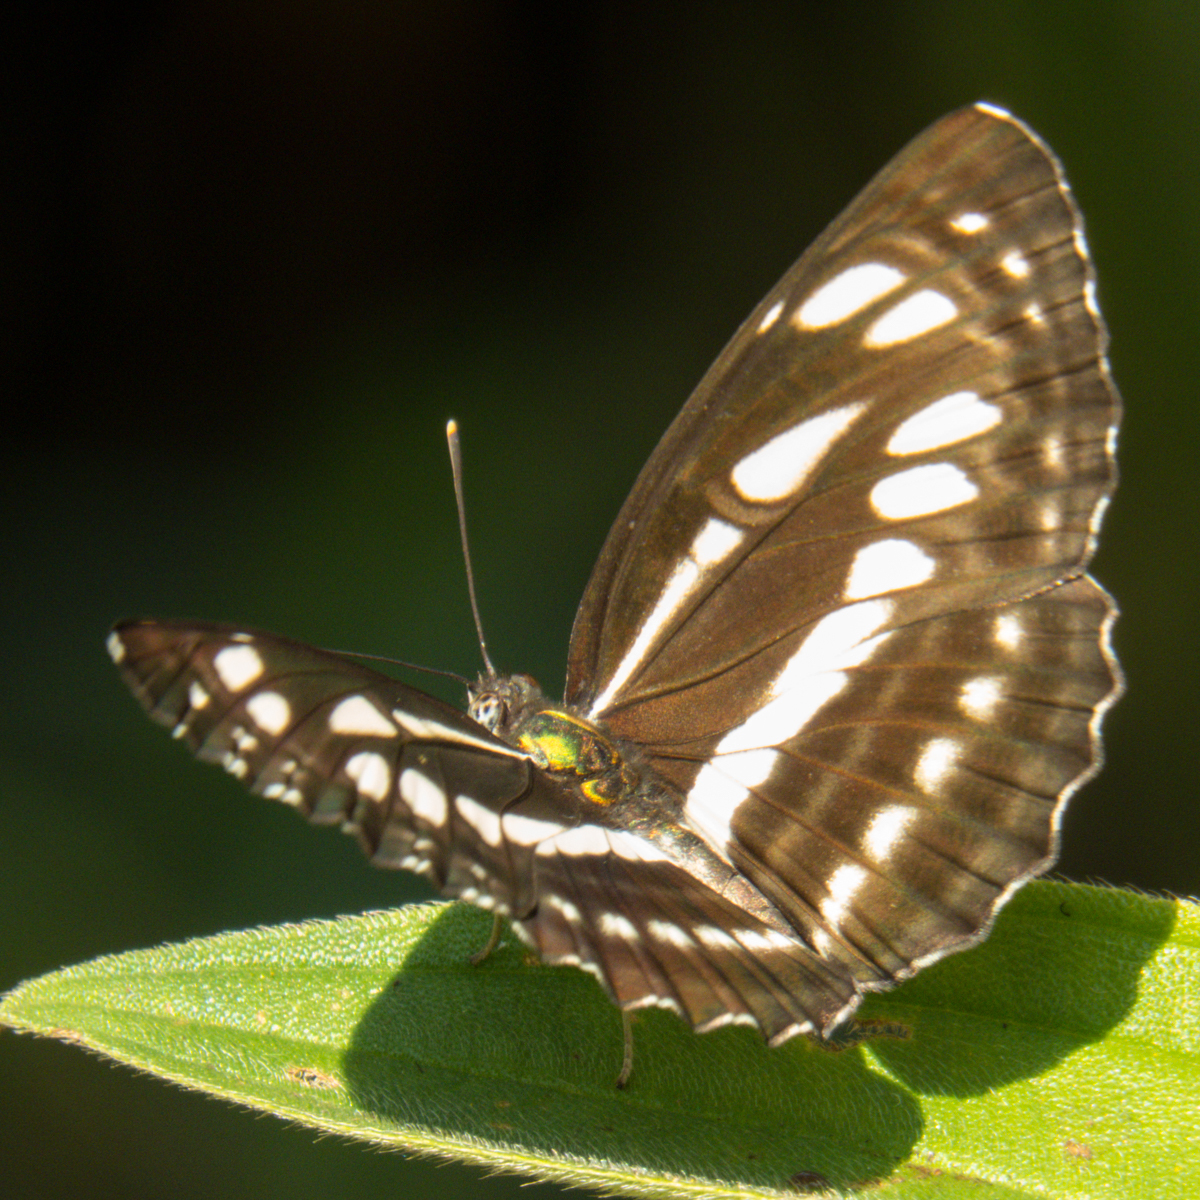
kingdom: Animalia
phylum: Arthropoda
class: Insecta
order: Lepidoptera
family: Nymphalidae
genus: Neptis
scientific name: Neptis hylas
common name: Common sailer
